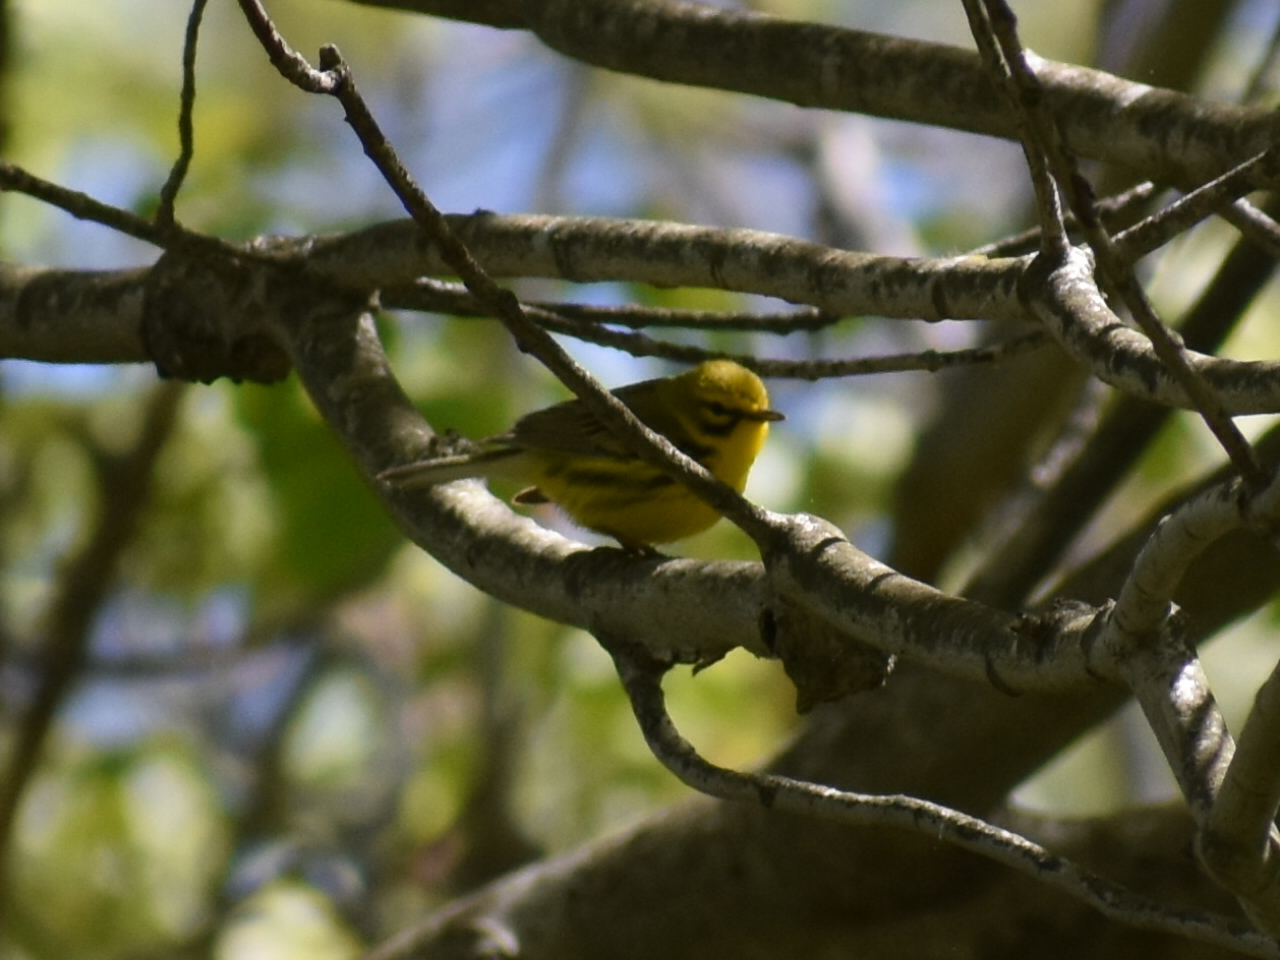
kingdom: Animalia
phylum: Chordata
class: Aves
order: Passeriformes
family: Parulidae
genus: Setophaga
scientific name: Setophaga discolor
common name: Prairie warbler
